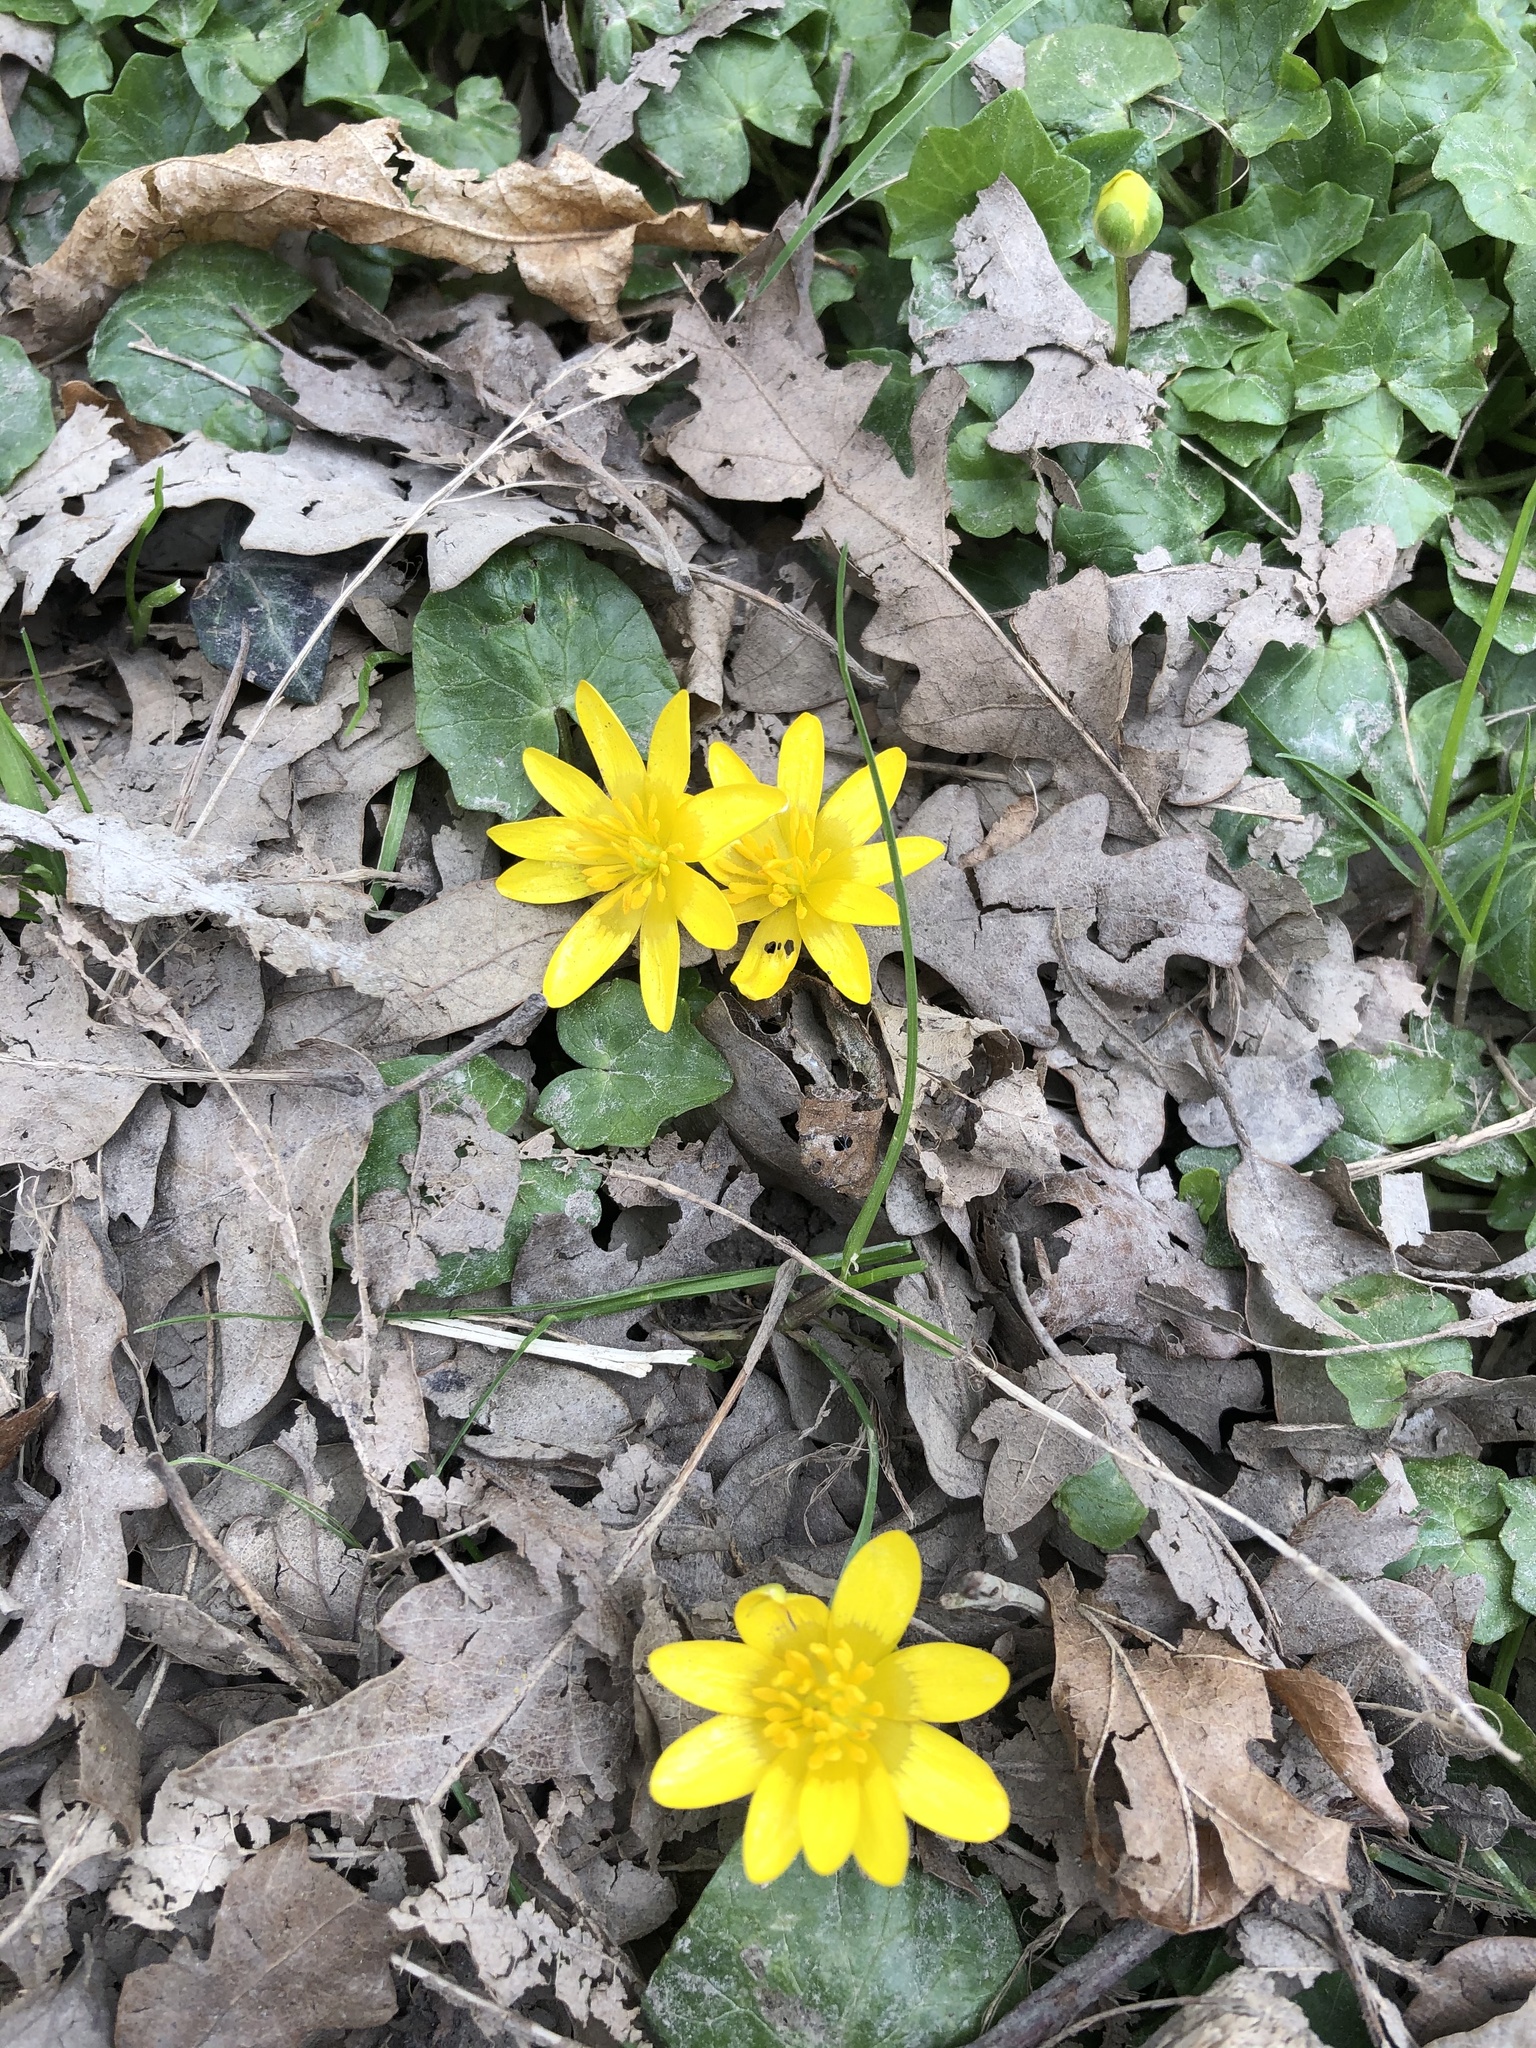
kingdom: Plantae
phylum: Tracheophyta
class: Magnoliopsida
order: Ranunculales
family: Ranunculaceae
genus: Ficaria
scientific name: Ficaria verna
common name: Lesser celandine
